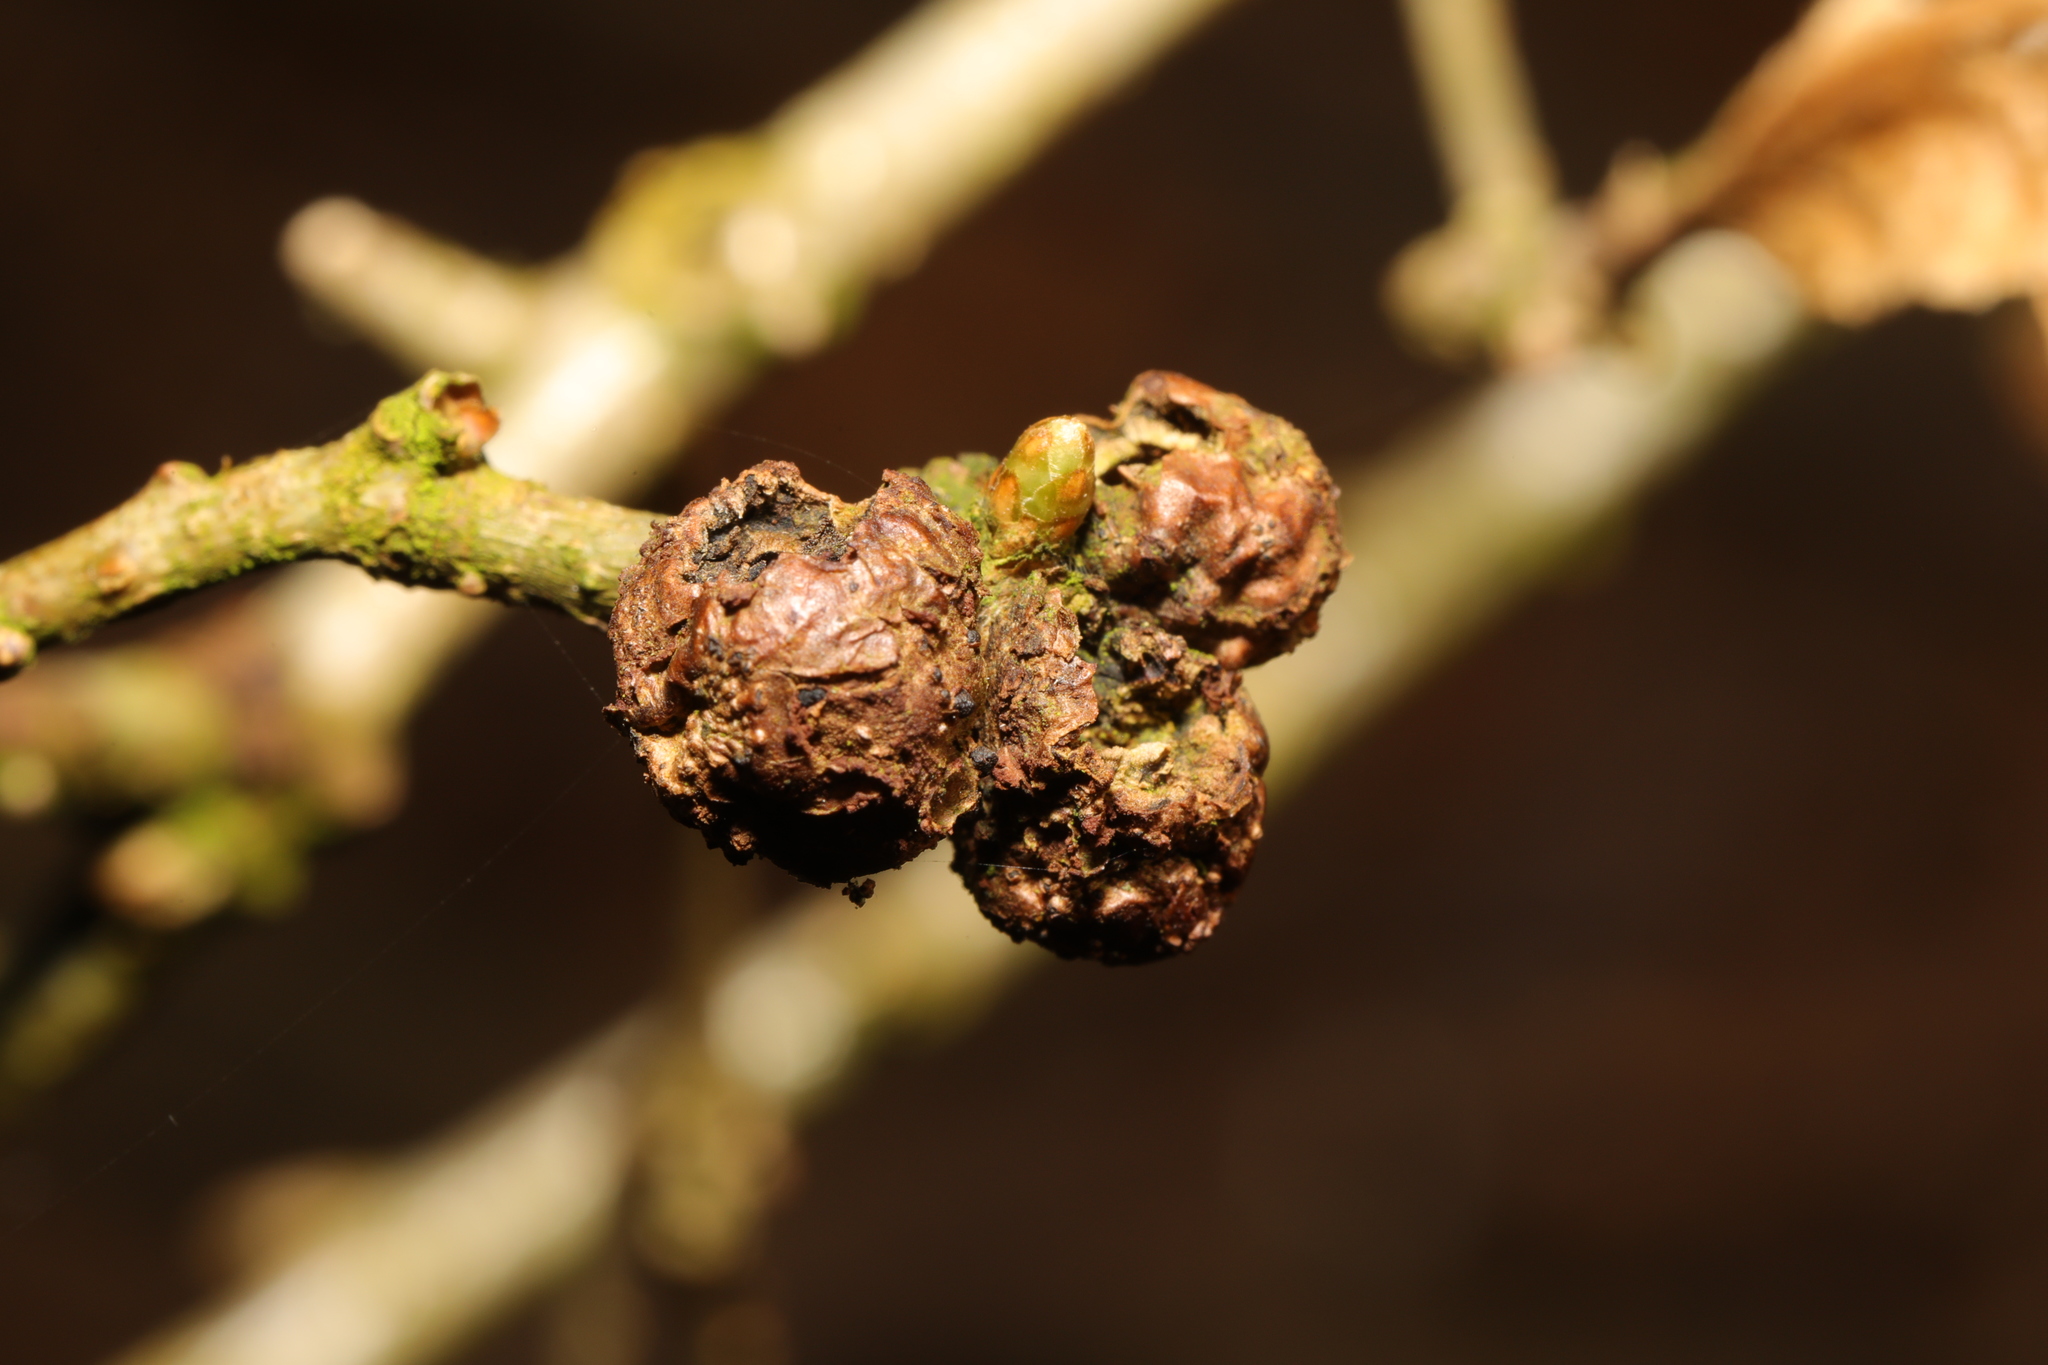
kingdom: Animalia
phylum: Arthropoda
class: Insecta
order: Hymenoptera
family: Cynipidae
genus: Andricus
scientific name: Andricus lignicolus
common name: Cola-nut gall
